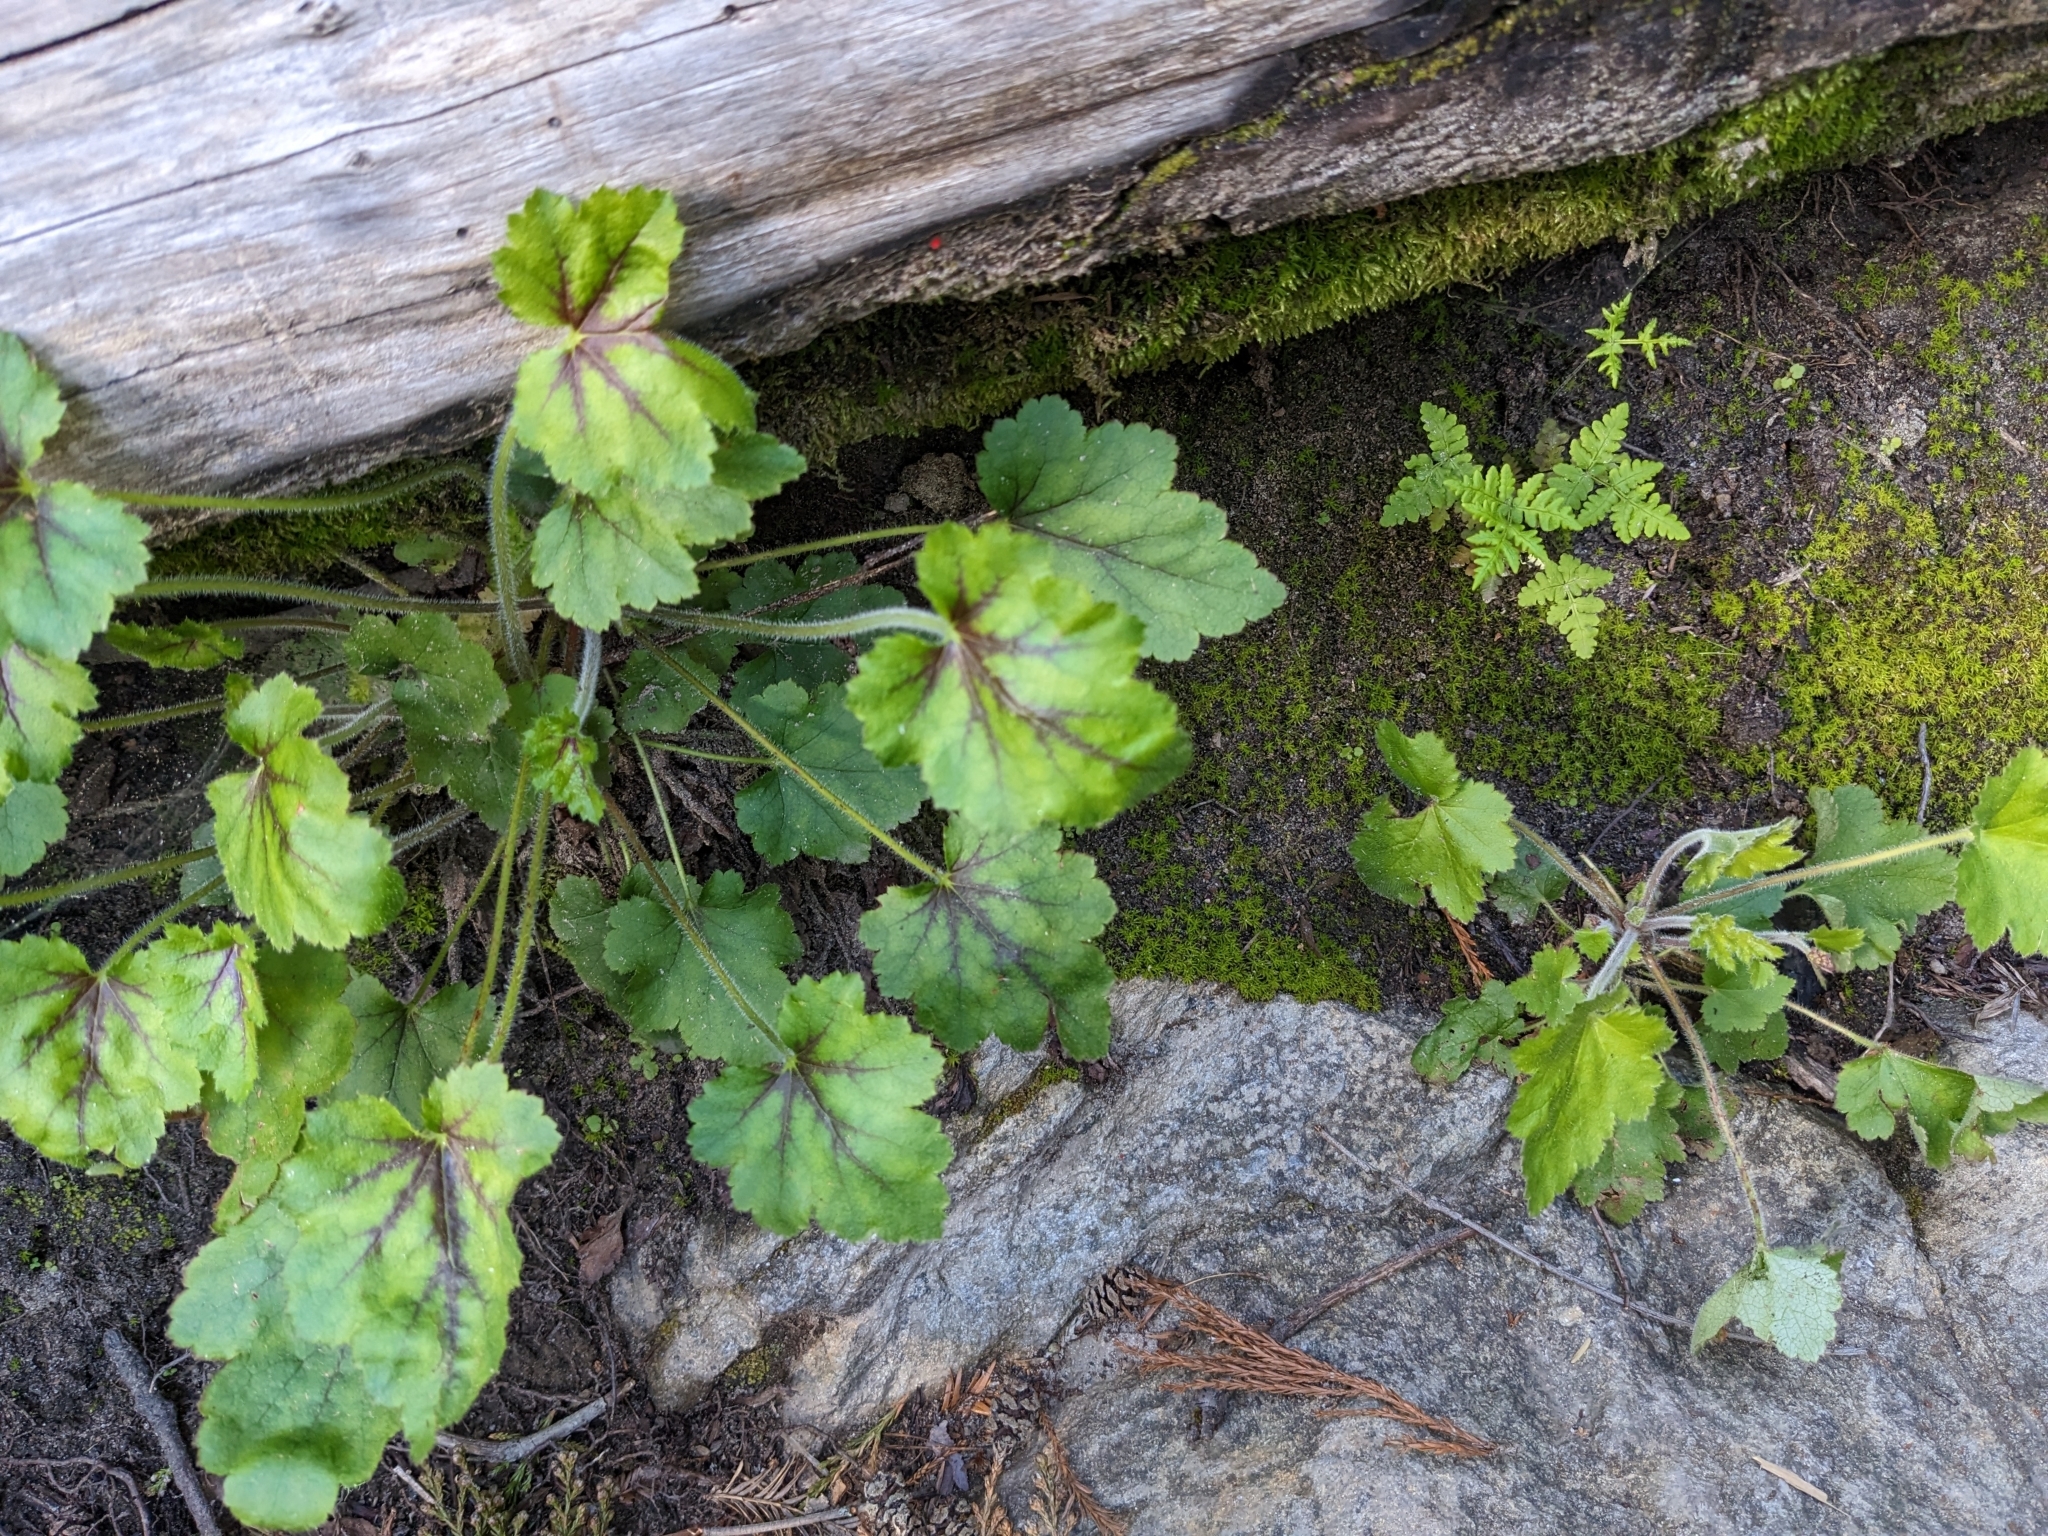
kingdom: Plantae
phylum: Tracheophyta
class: Magnoliopsida
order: Saxifragales
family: Saxifragaceae
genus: Heuchera
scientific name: Heuchera micrantha
